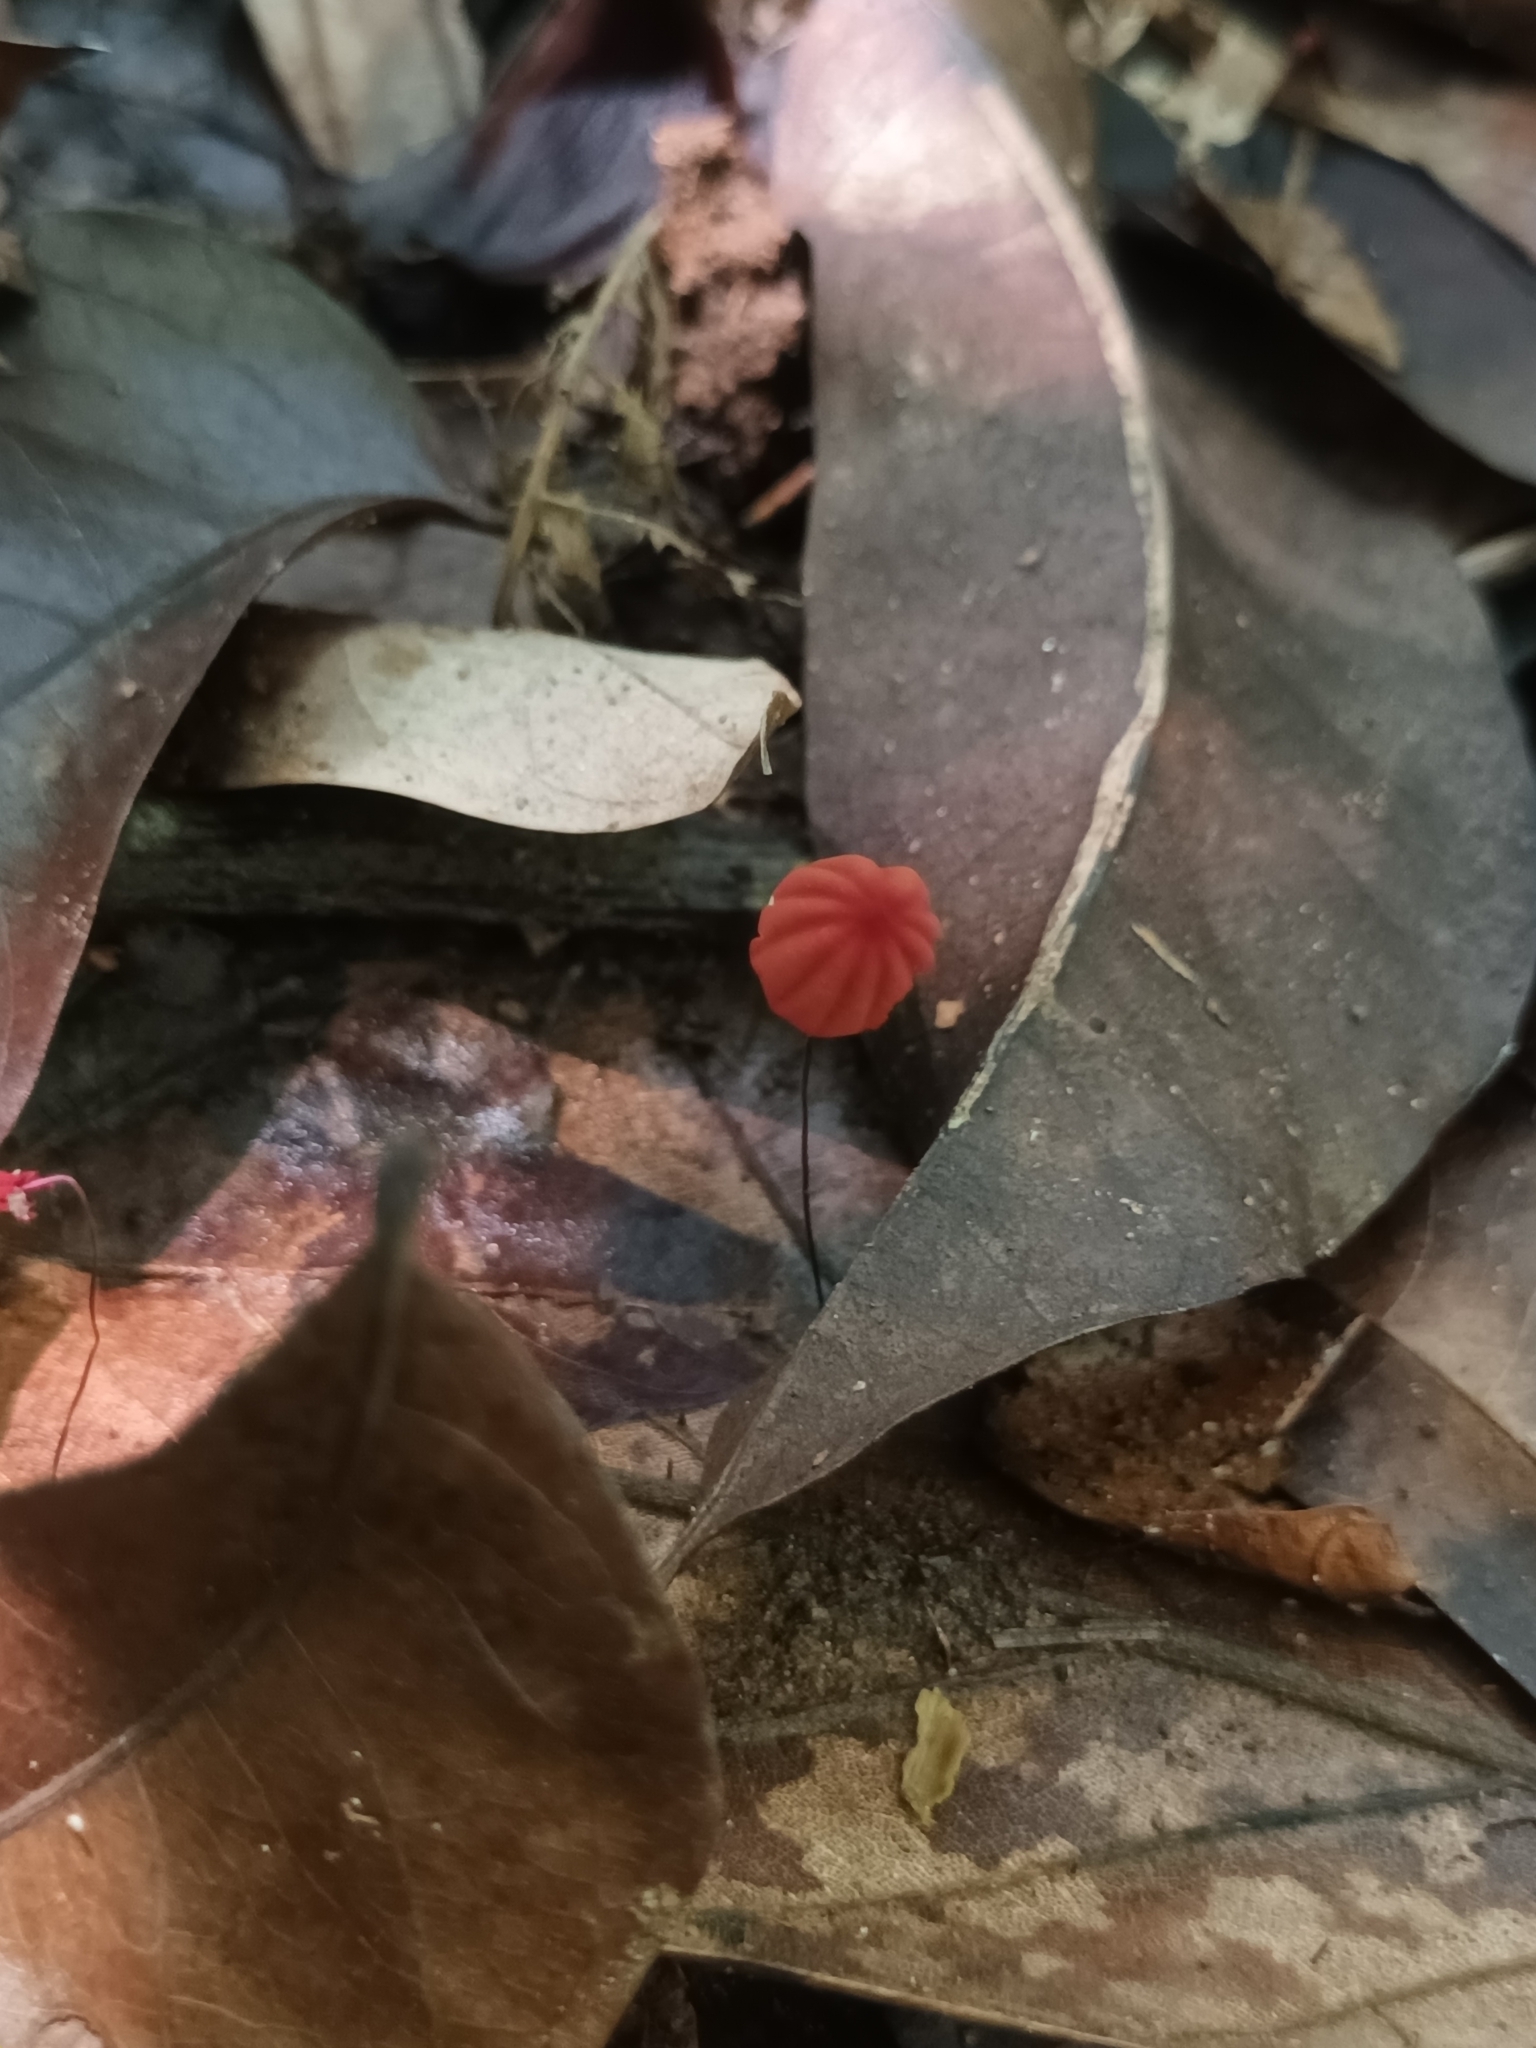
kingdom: Fungi
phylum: Basidiomycota
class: Agaricomycetes
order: Agaricales
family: Marasmiaceae
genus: Marasmius
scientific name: Marasmius haematocephalus
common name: Purple pinwheel
